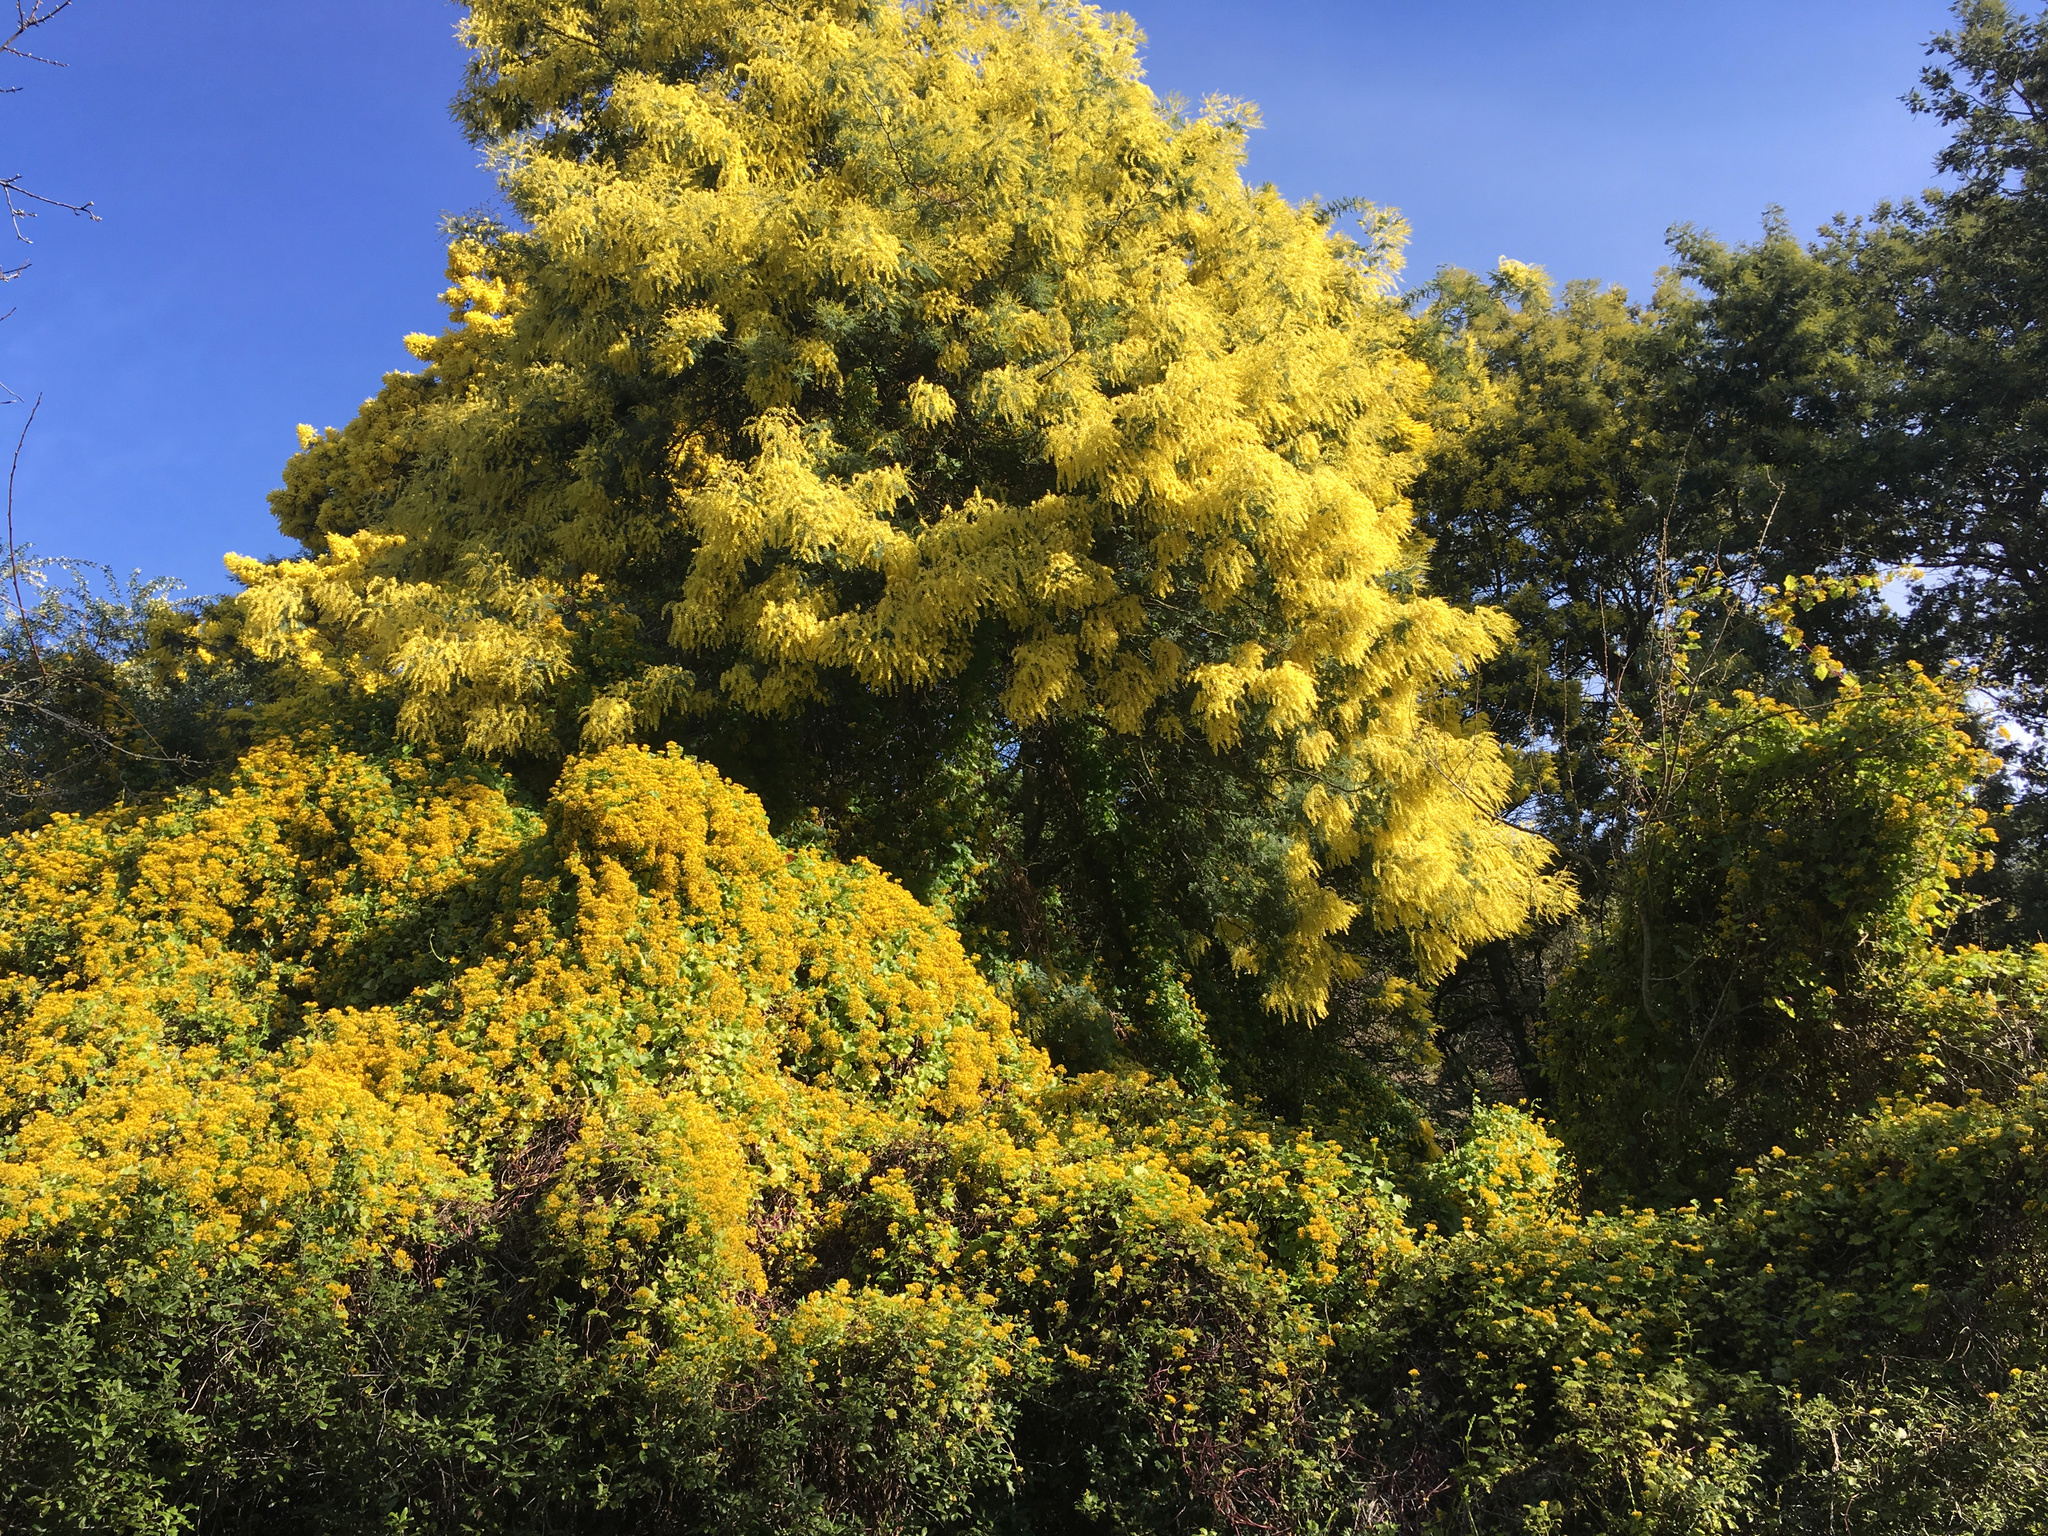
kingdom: Plantae
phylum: Tracheophyta
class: Magnoliopsida
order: Fabales
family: Fabaceae
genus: Acacia
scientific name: Acacia dealbata
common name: Silver wattle
